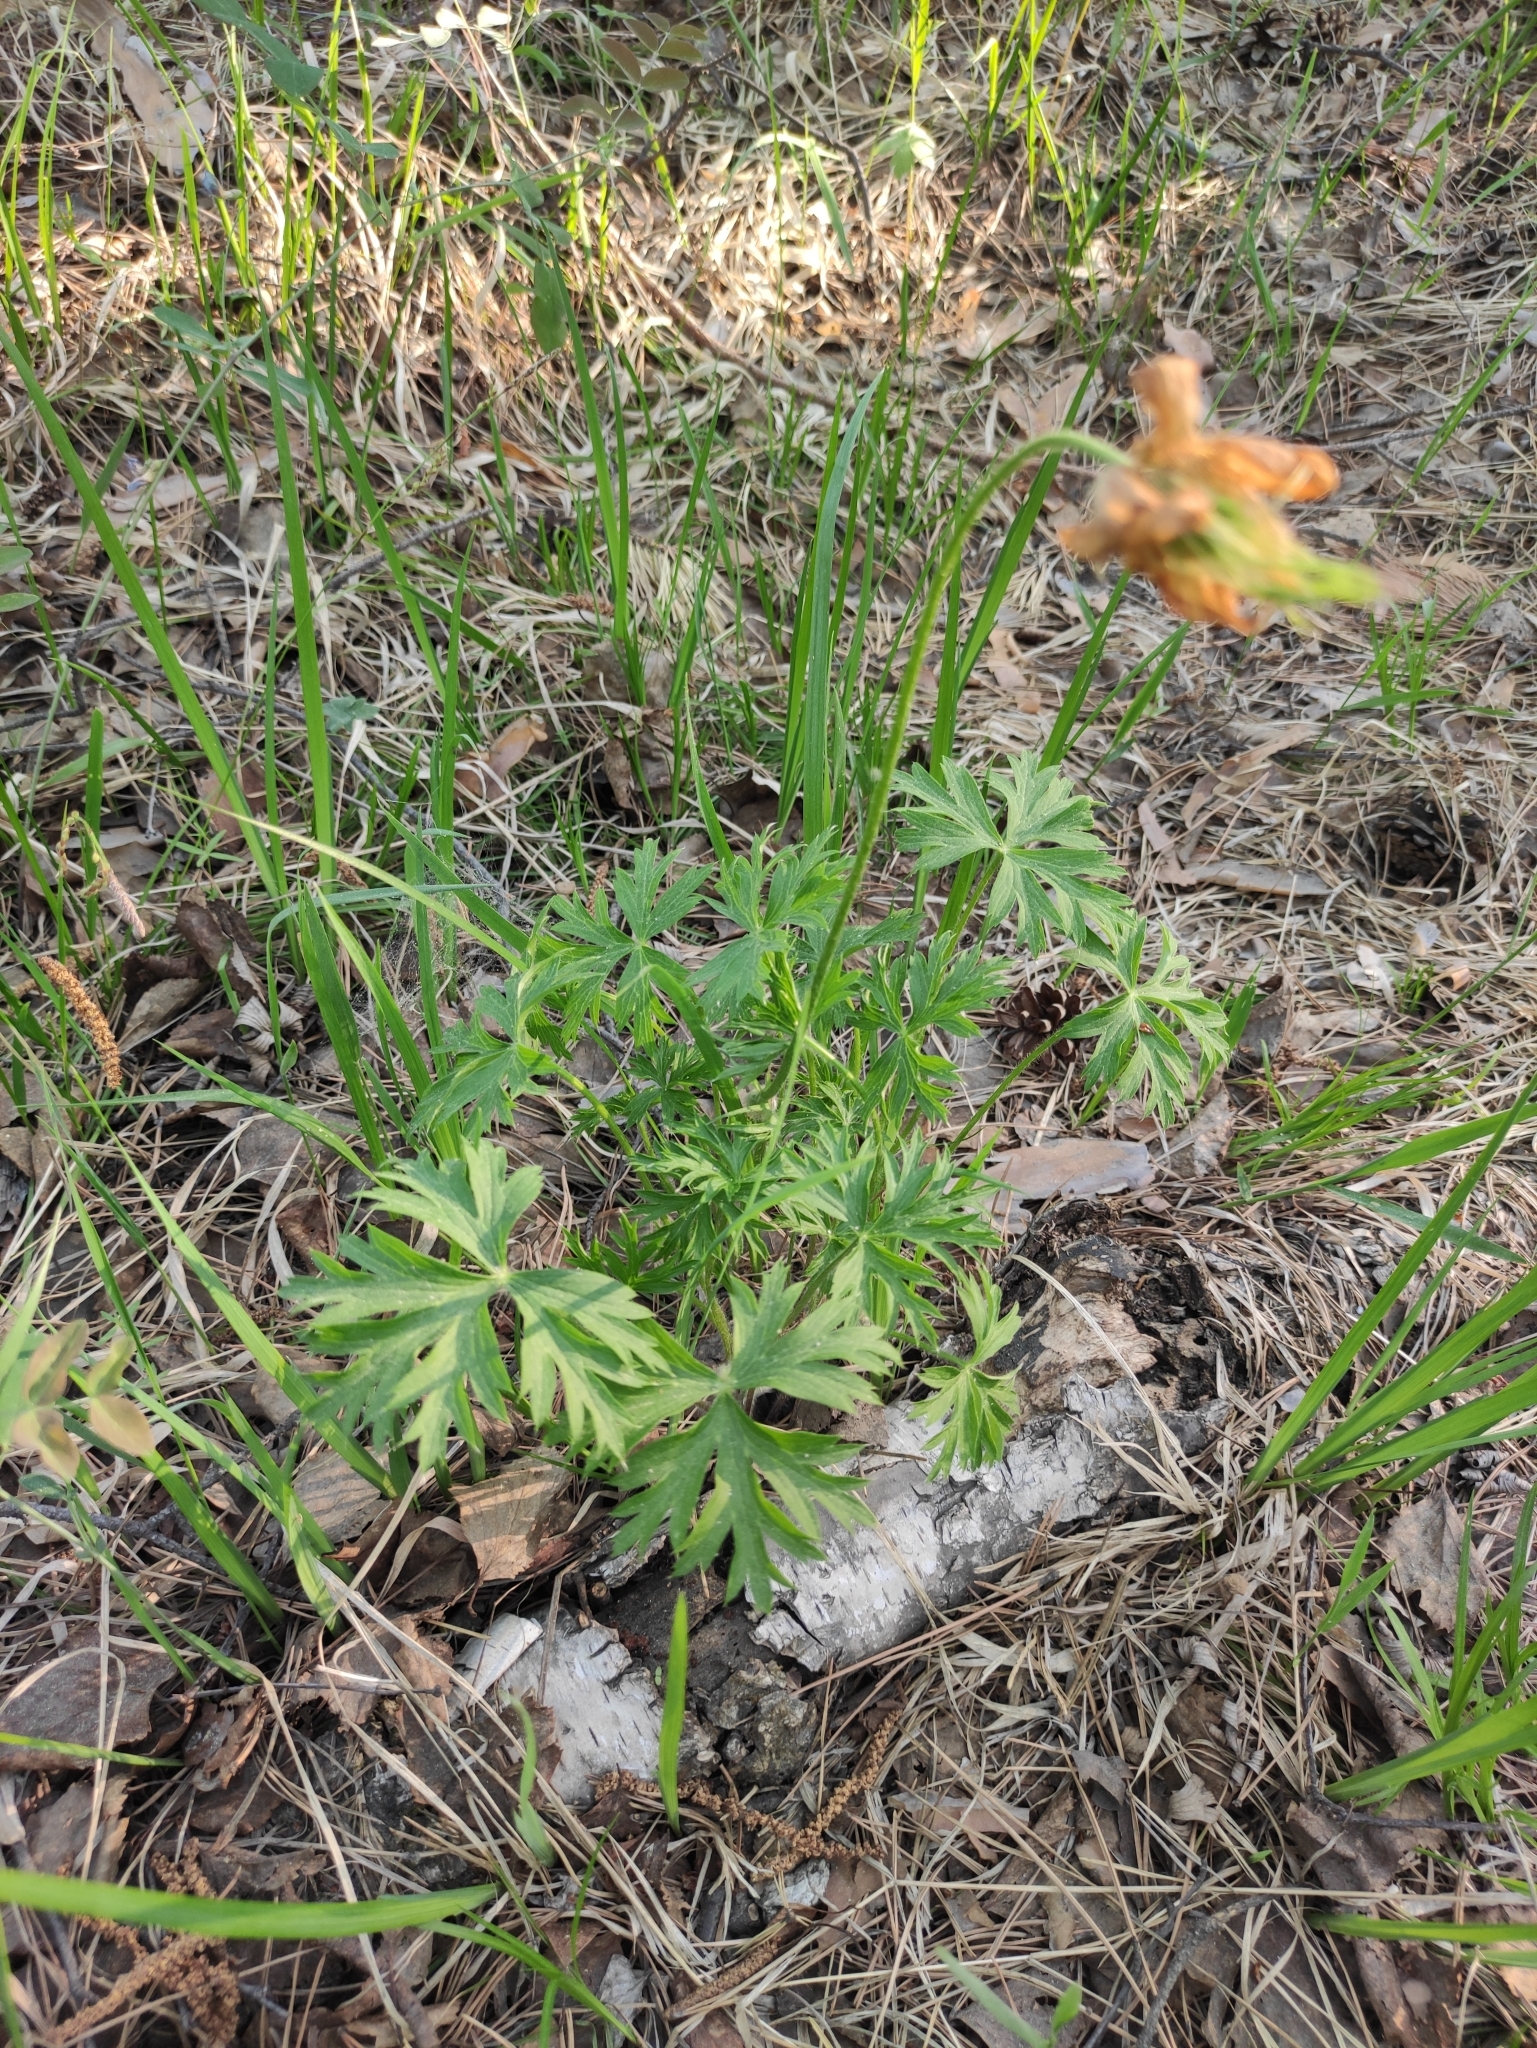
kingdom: Plantae
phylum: Tracheophyta
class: Magnoliopsida
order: Ranunculales
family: Ranunculaceae
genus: Pulsatilla
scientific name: Pulsatilla patens
